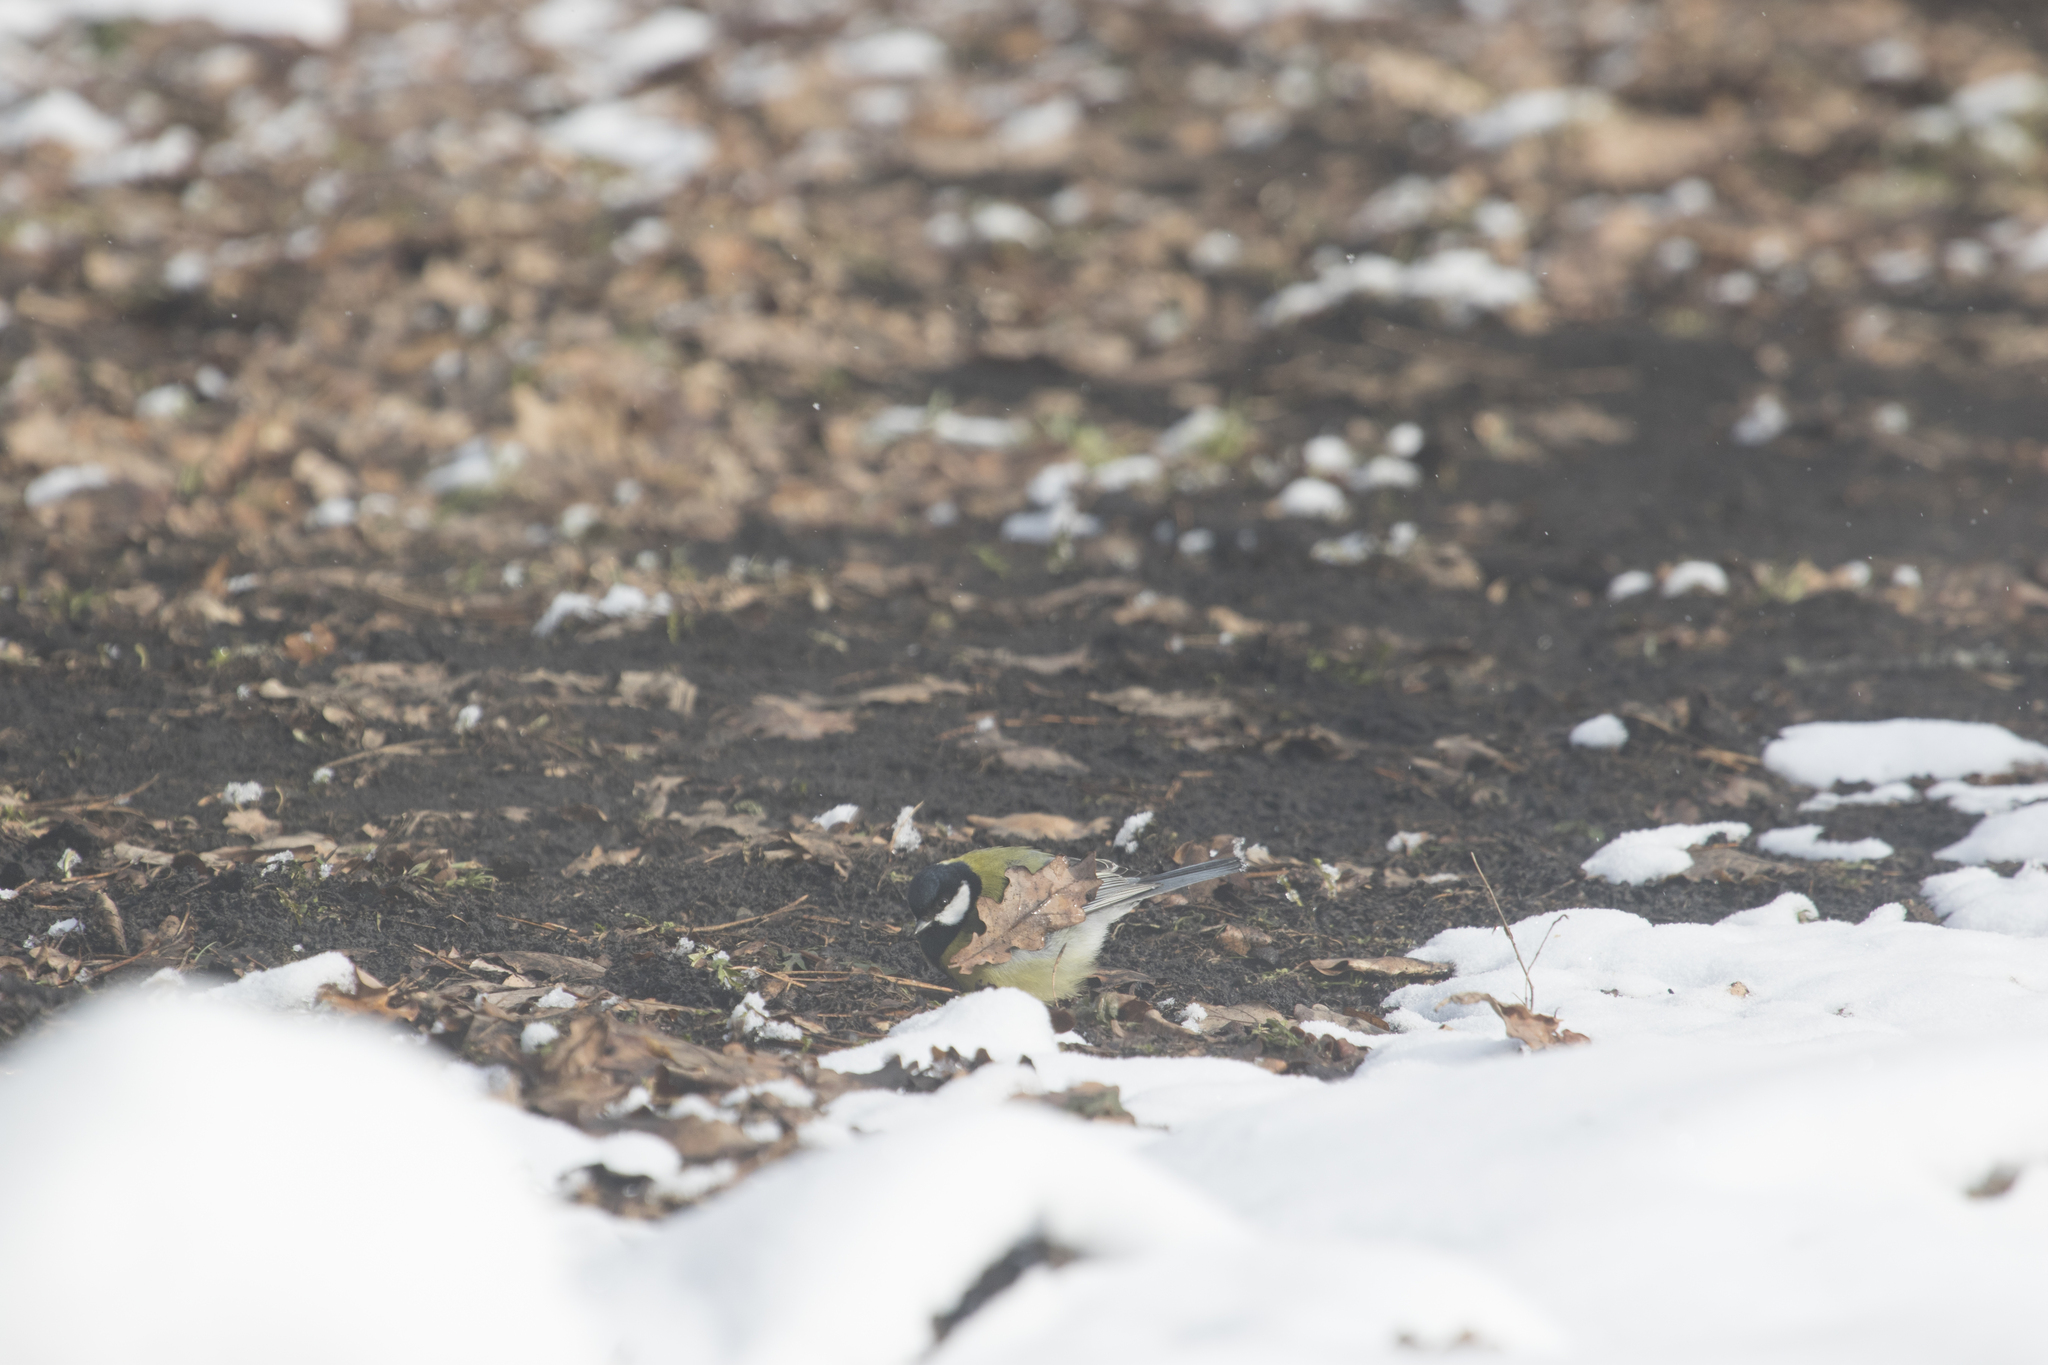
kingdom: Animalia
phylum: Chordata
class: Aves
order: Passeriformes
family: Paridae
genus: Parus
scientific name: Parus major
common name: Great tit
